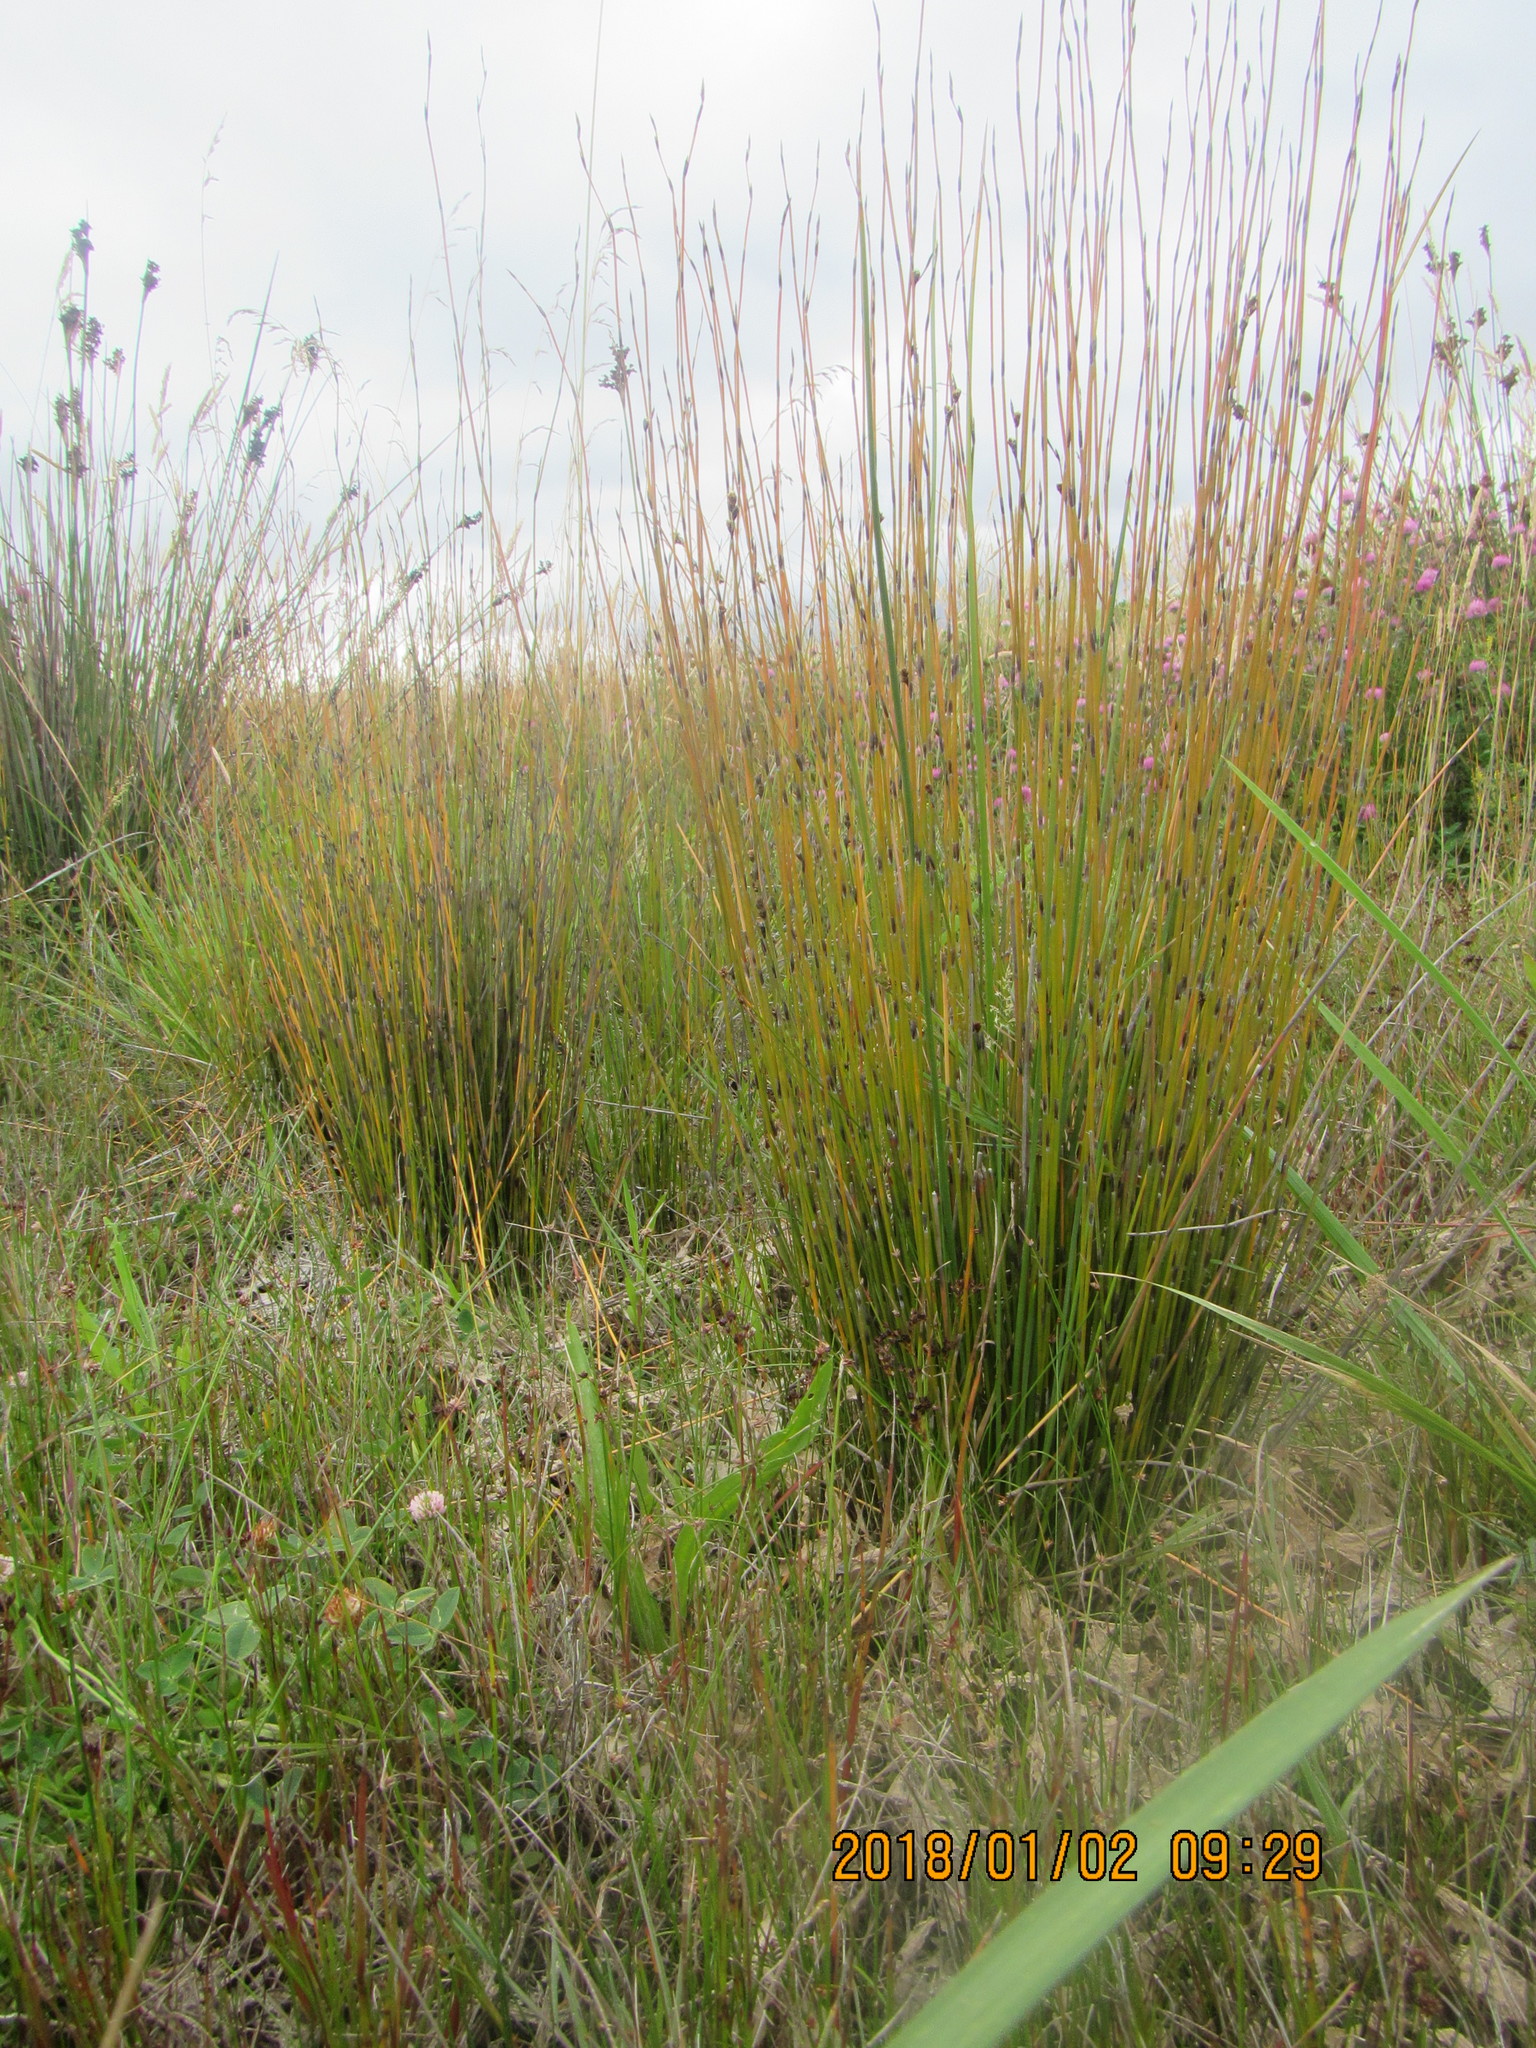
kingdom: Plantae
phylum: Tracheophyta
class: Liliopsida
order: Poales
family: Restionaceae
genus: Apodasmia
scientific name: Apodasmia similis
